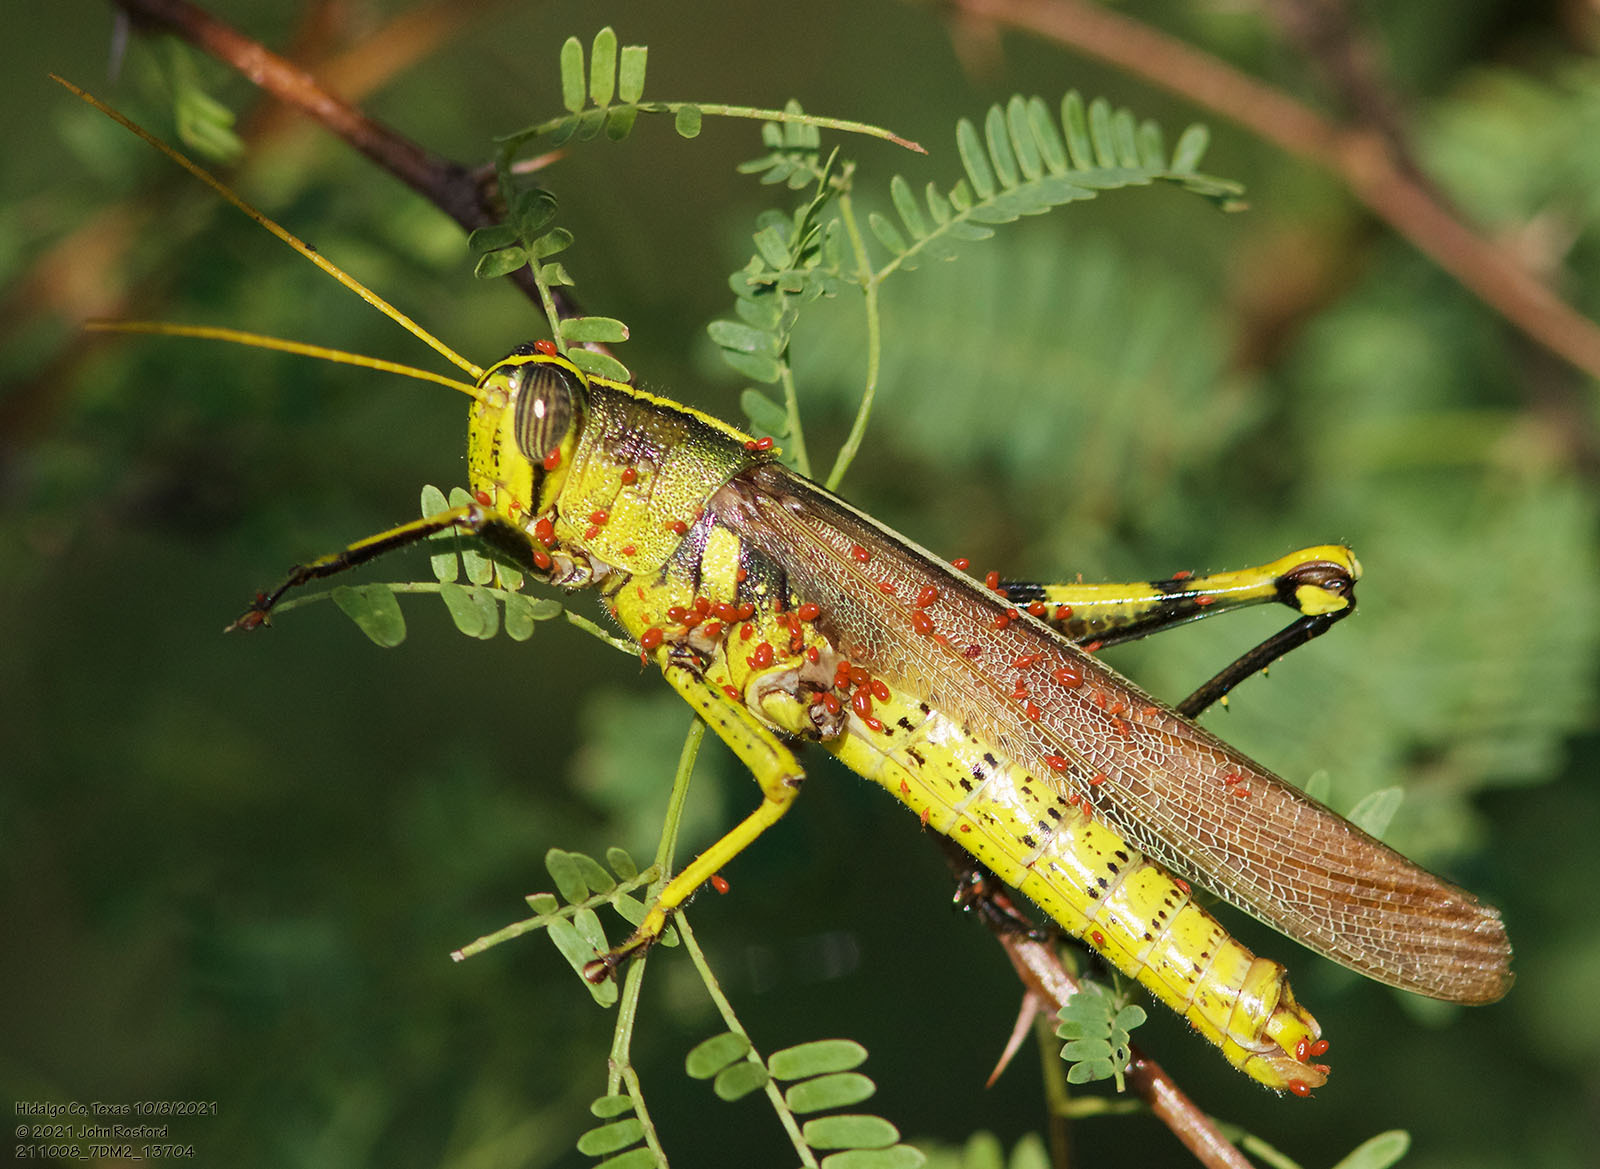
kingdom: Animalia
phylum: Arthropoda
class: Insecta
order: Orthoptera
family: Acrididae
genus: Schistocerca
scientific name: Schistocerca obscura
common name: Obscure bird grasshopper
